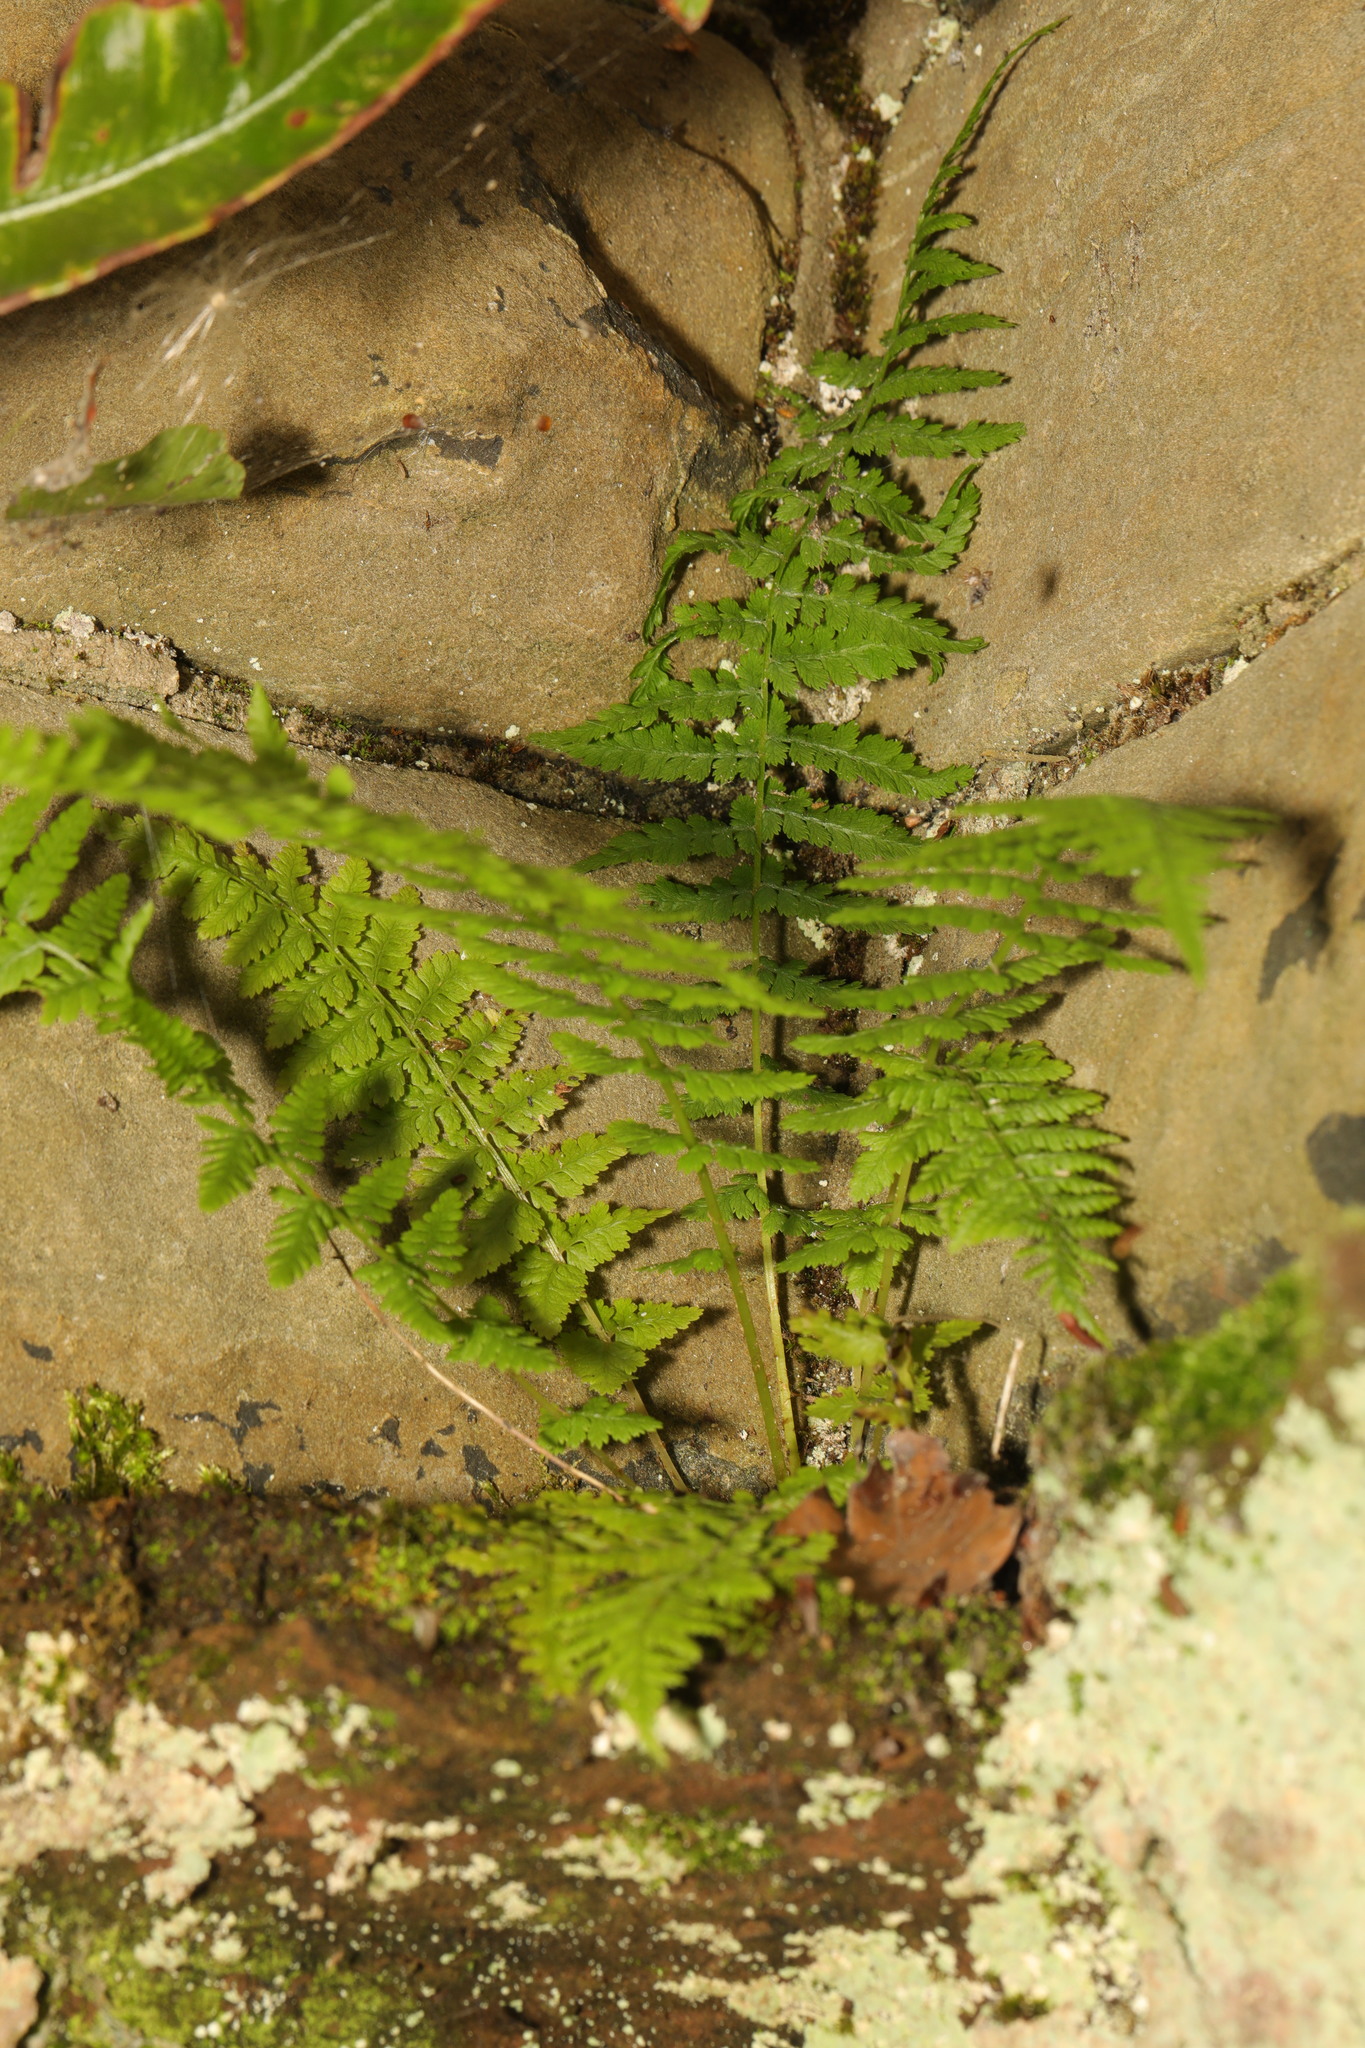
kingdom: Plantae
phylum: Tracheophyta
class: Polypodiopsida
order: Polypodiales
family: Athyriaceae
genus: Athyrium
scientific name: Athyrium filix-femina
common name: Lady fern
